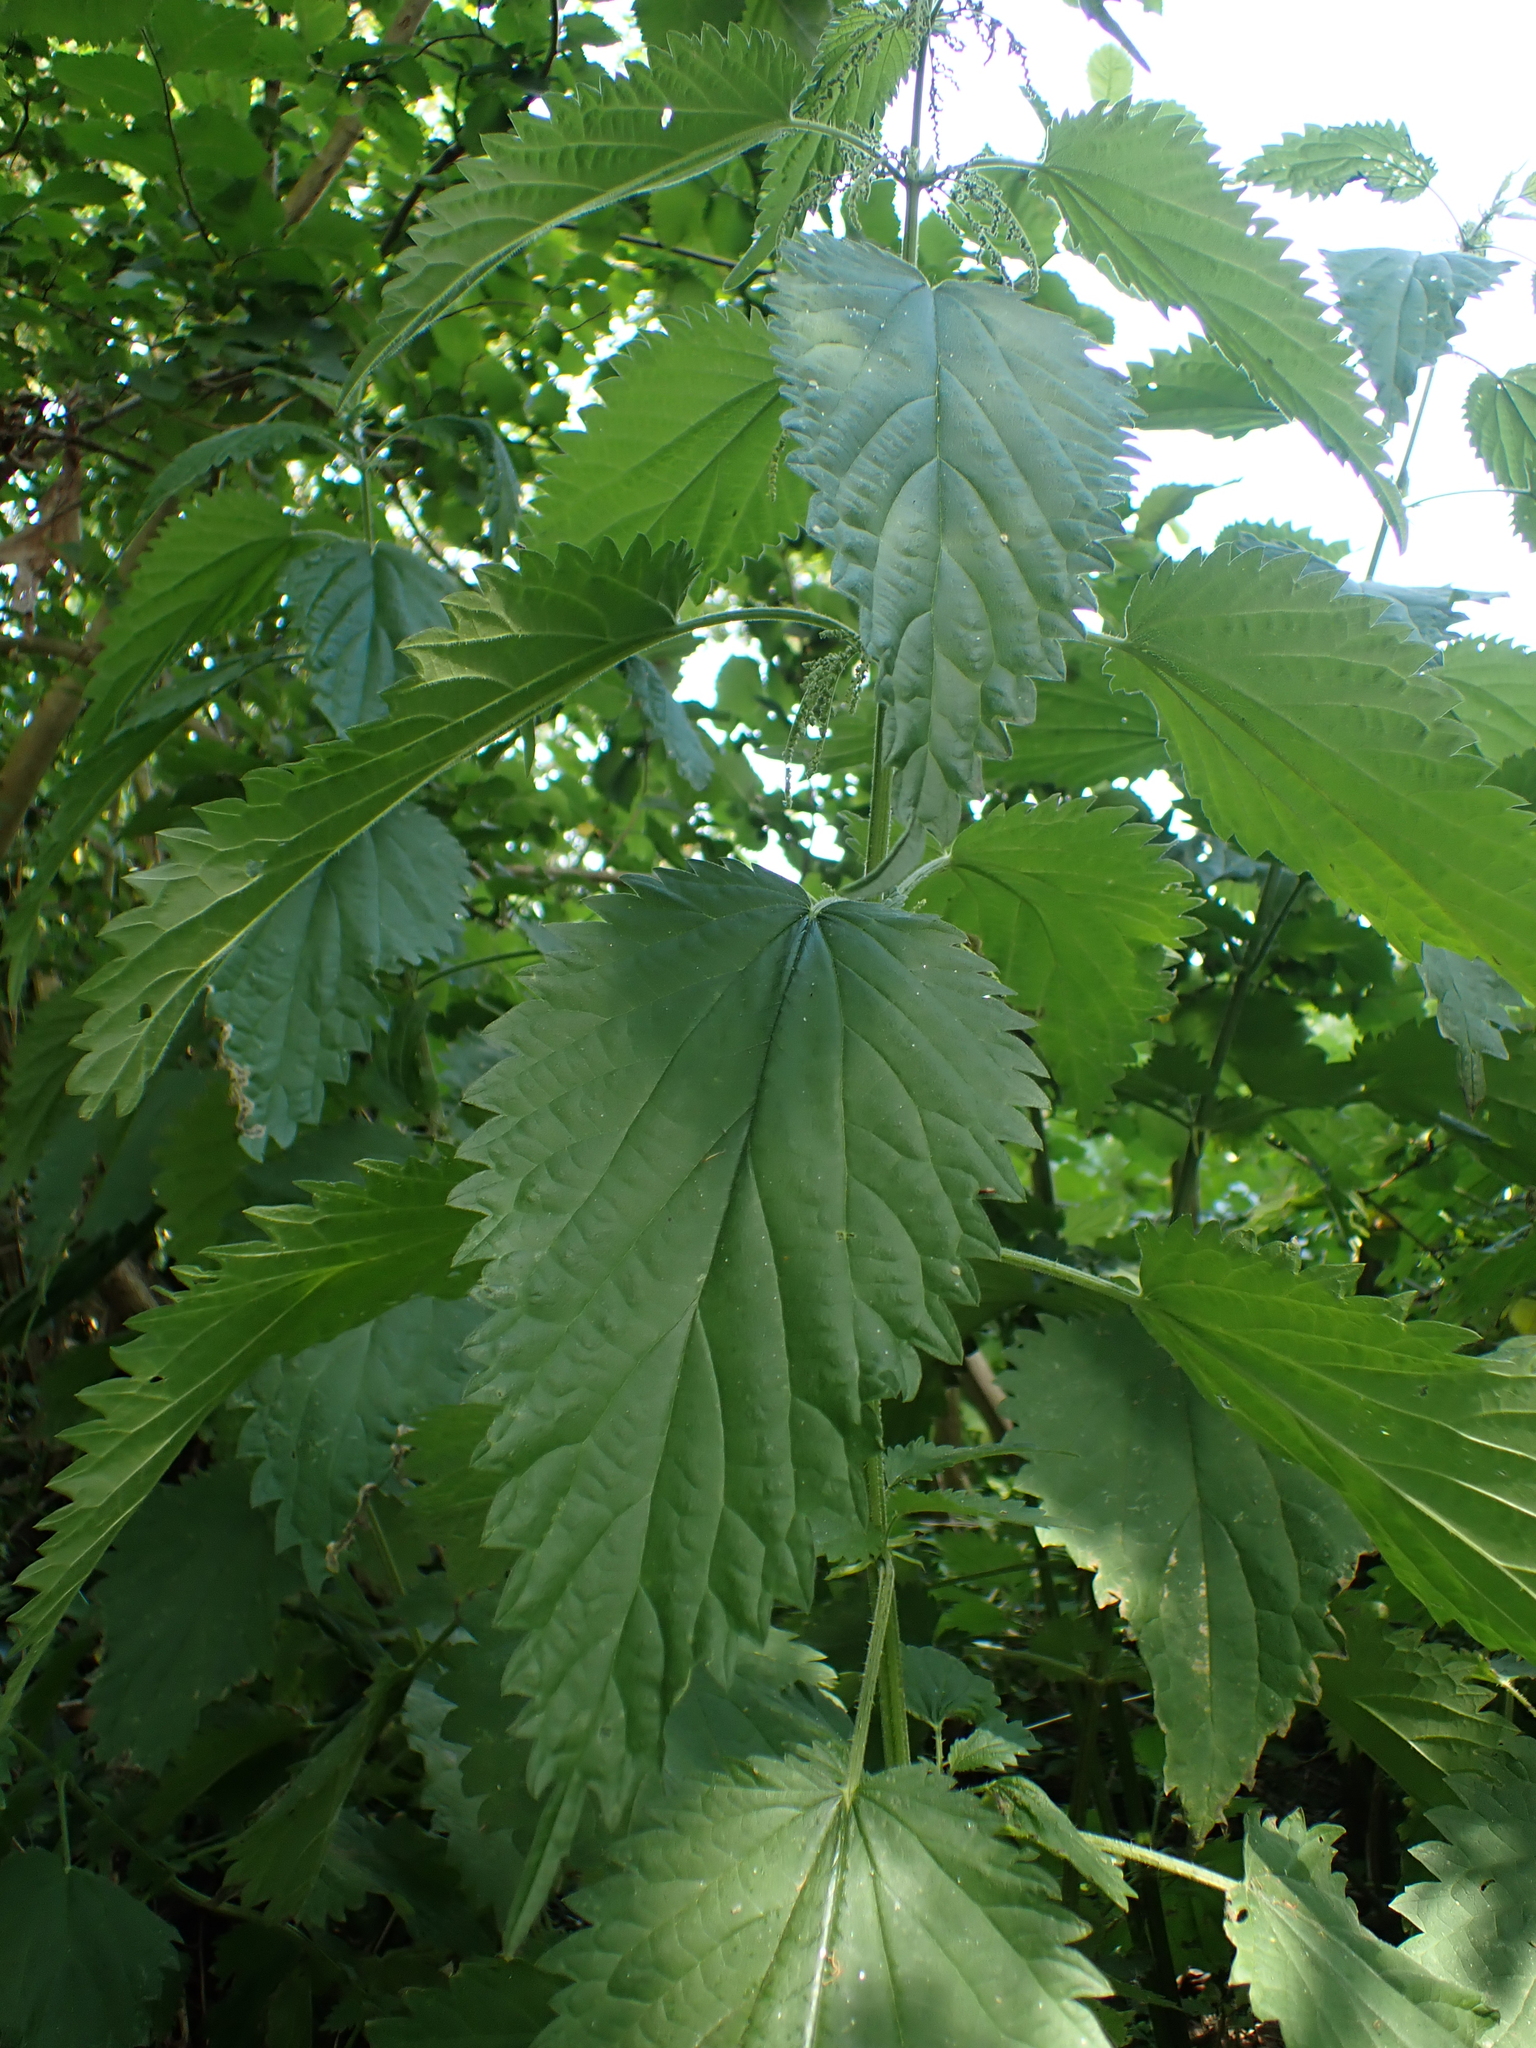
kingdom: Plantae
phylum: Tracheophyta
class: Magnoliopsida
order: Rosales
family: Urticaceae
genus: Urtica
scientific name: Urtica dioica
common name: Common nettle
